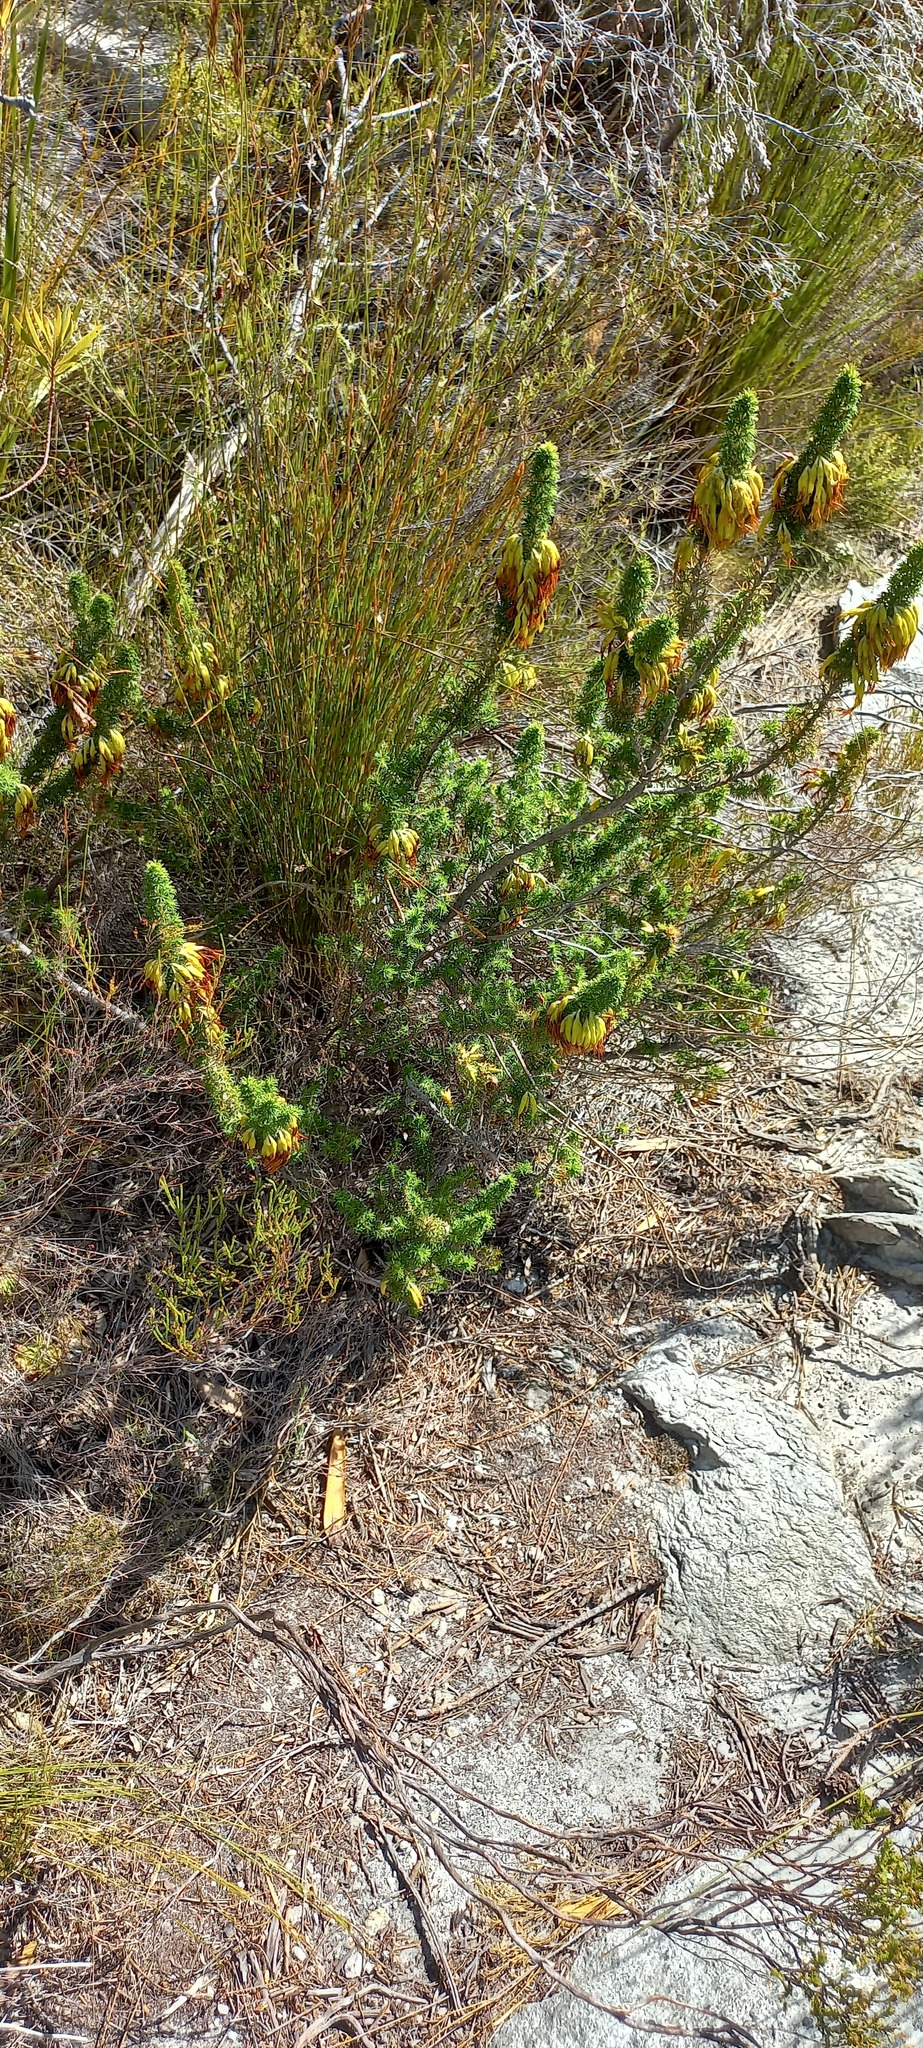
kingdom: Plantae
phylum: Tracheophyta
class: Magnoliopsida
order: Ericales
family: Ericaceae
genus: Erica
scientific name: Erica coccinea
